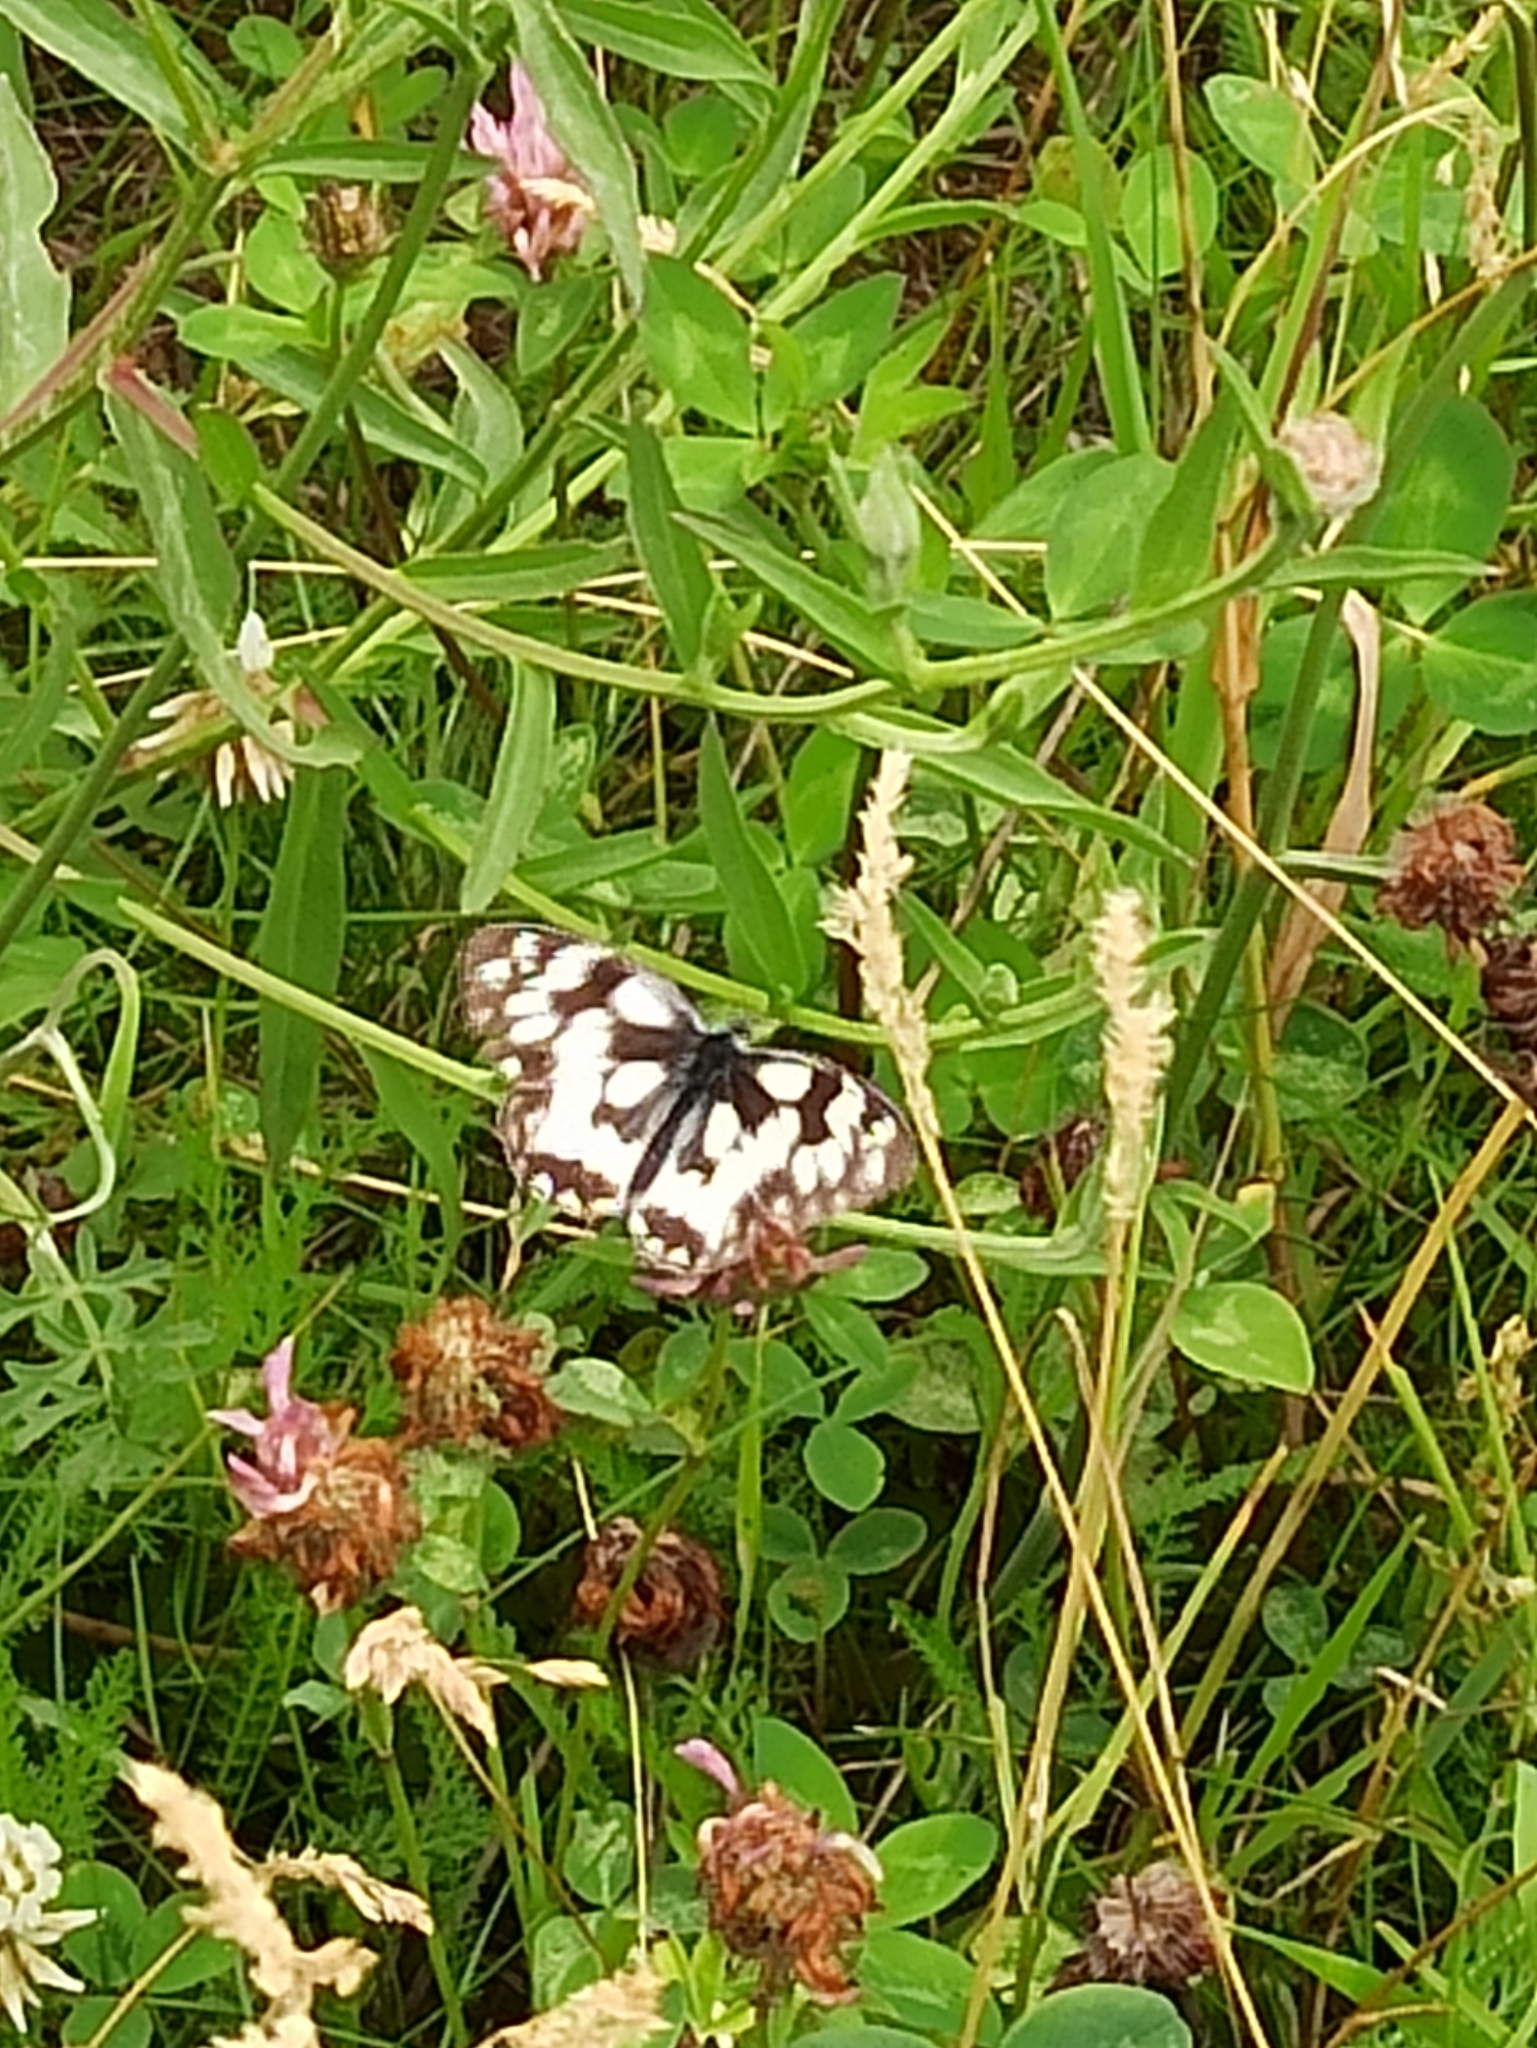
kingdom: Animalia
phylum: Arthropoda
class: Insecta
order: Lepidoptera
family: Nymphalidae
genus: Melanargia
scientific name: Melanargia galathea
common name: Marbled white
